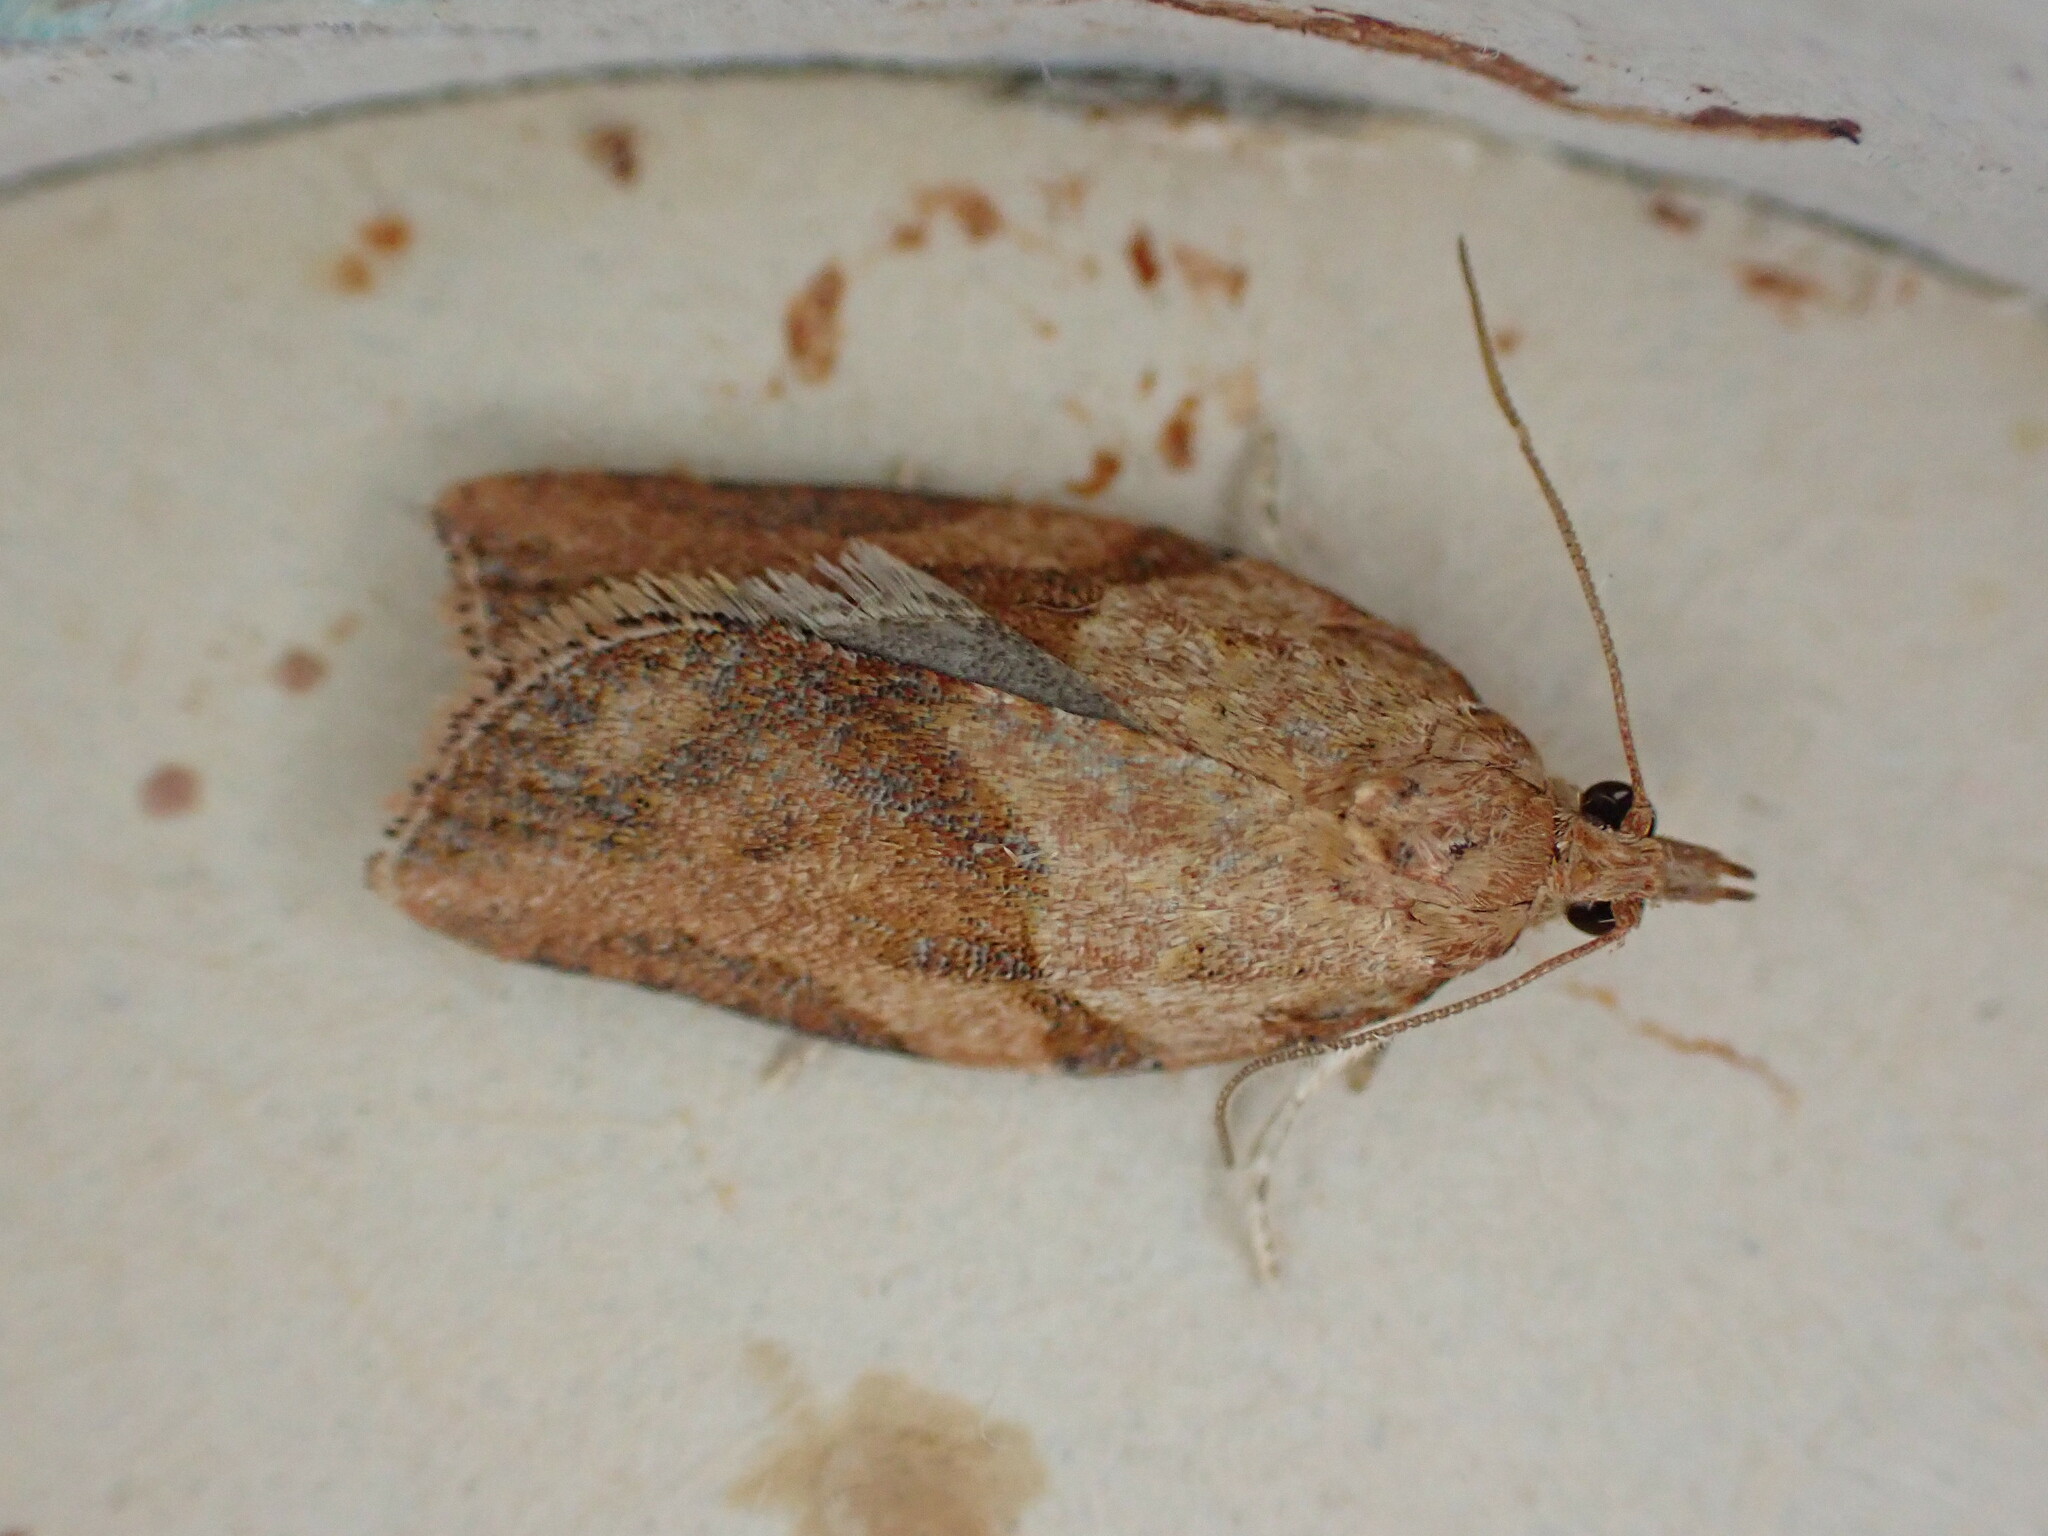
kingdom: Animalia
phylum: Arthropoda
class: Insecta
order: Lepidoptera
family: Tortricidae
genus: Epiphyas
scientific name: Epiphyas postvittana
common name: Light brown apple moth
